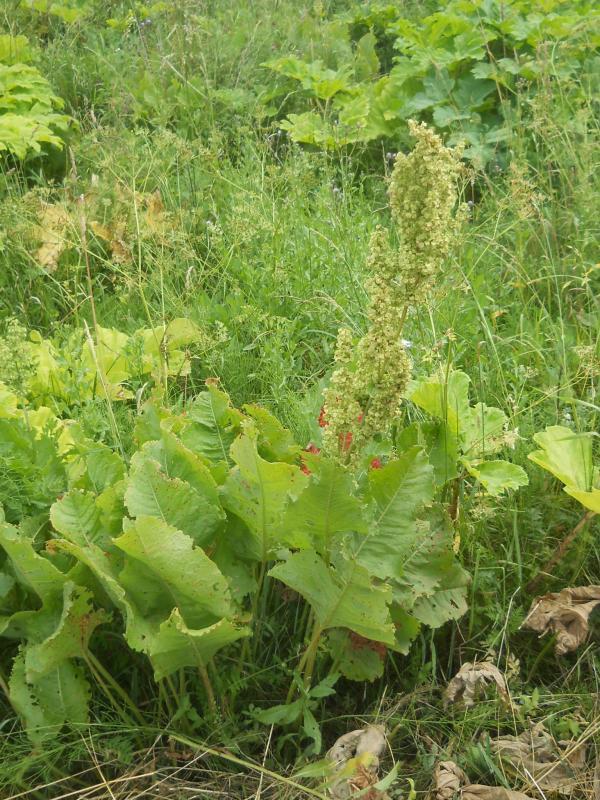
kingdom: Plantae
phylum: Tracheophyta
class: Magnoliopsida
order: Caryophyllales
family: Polygonaceae
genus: Rumex
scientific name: Rumex confertus
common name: Russian dock
